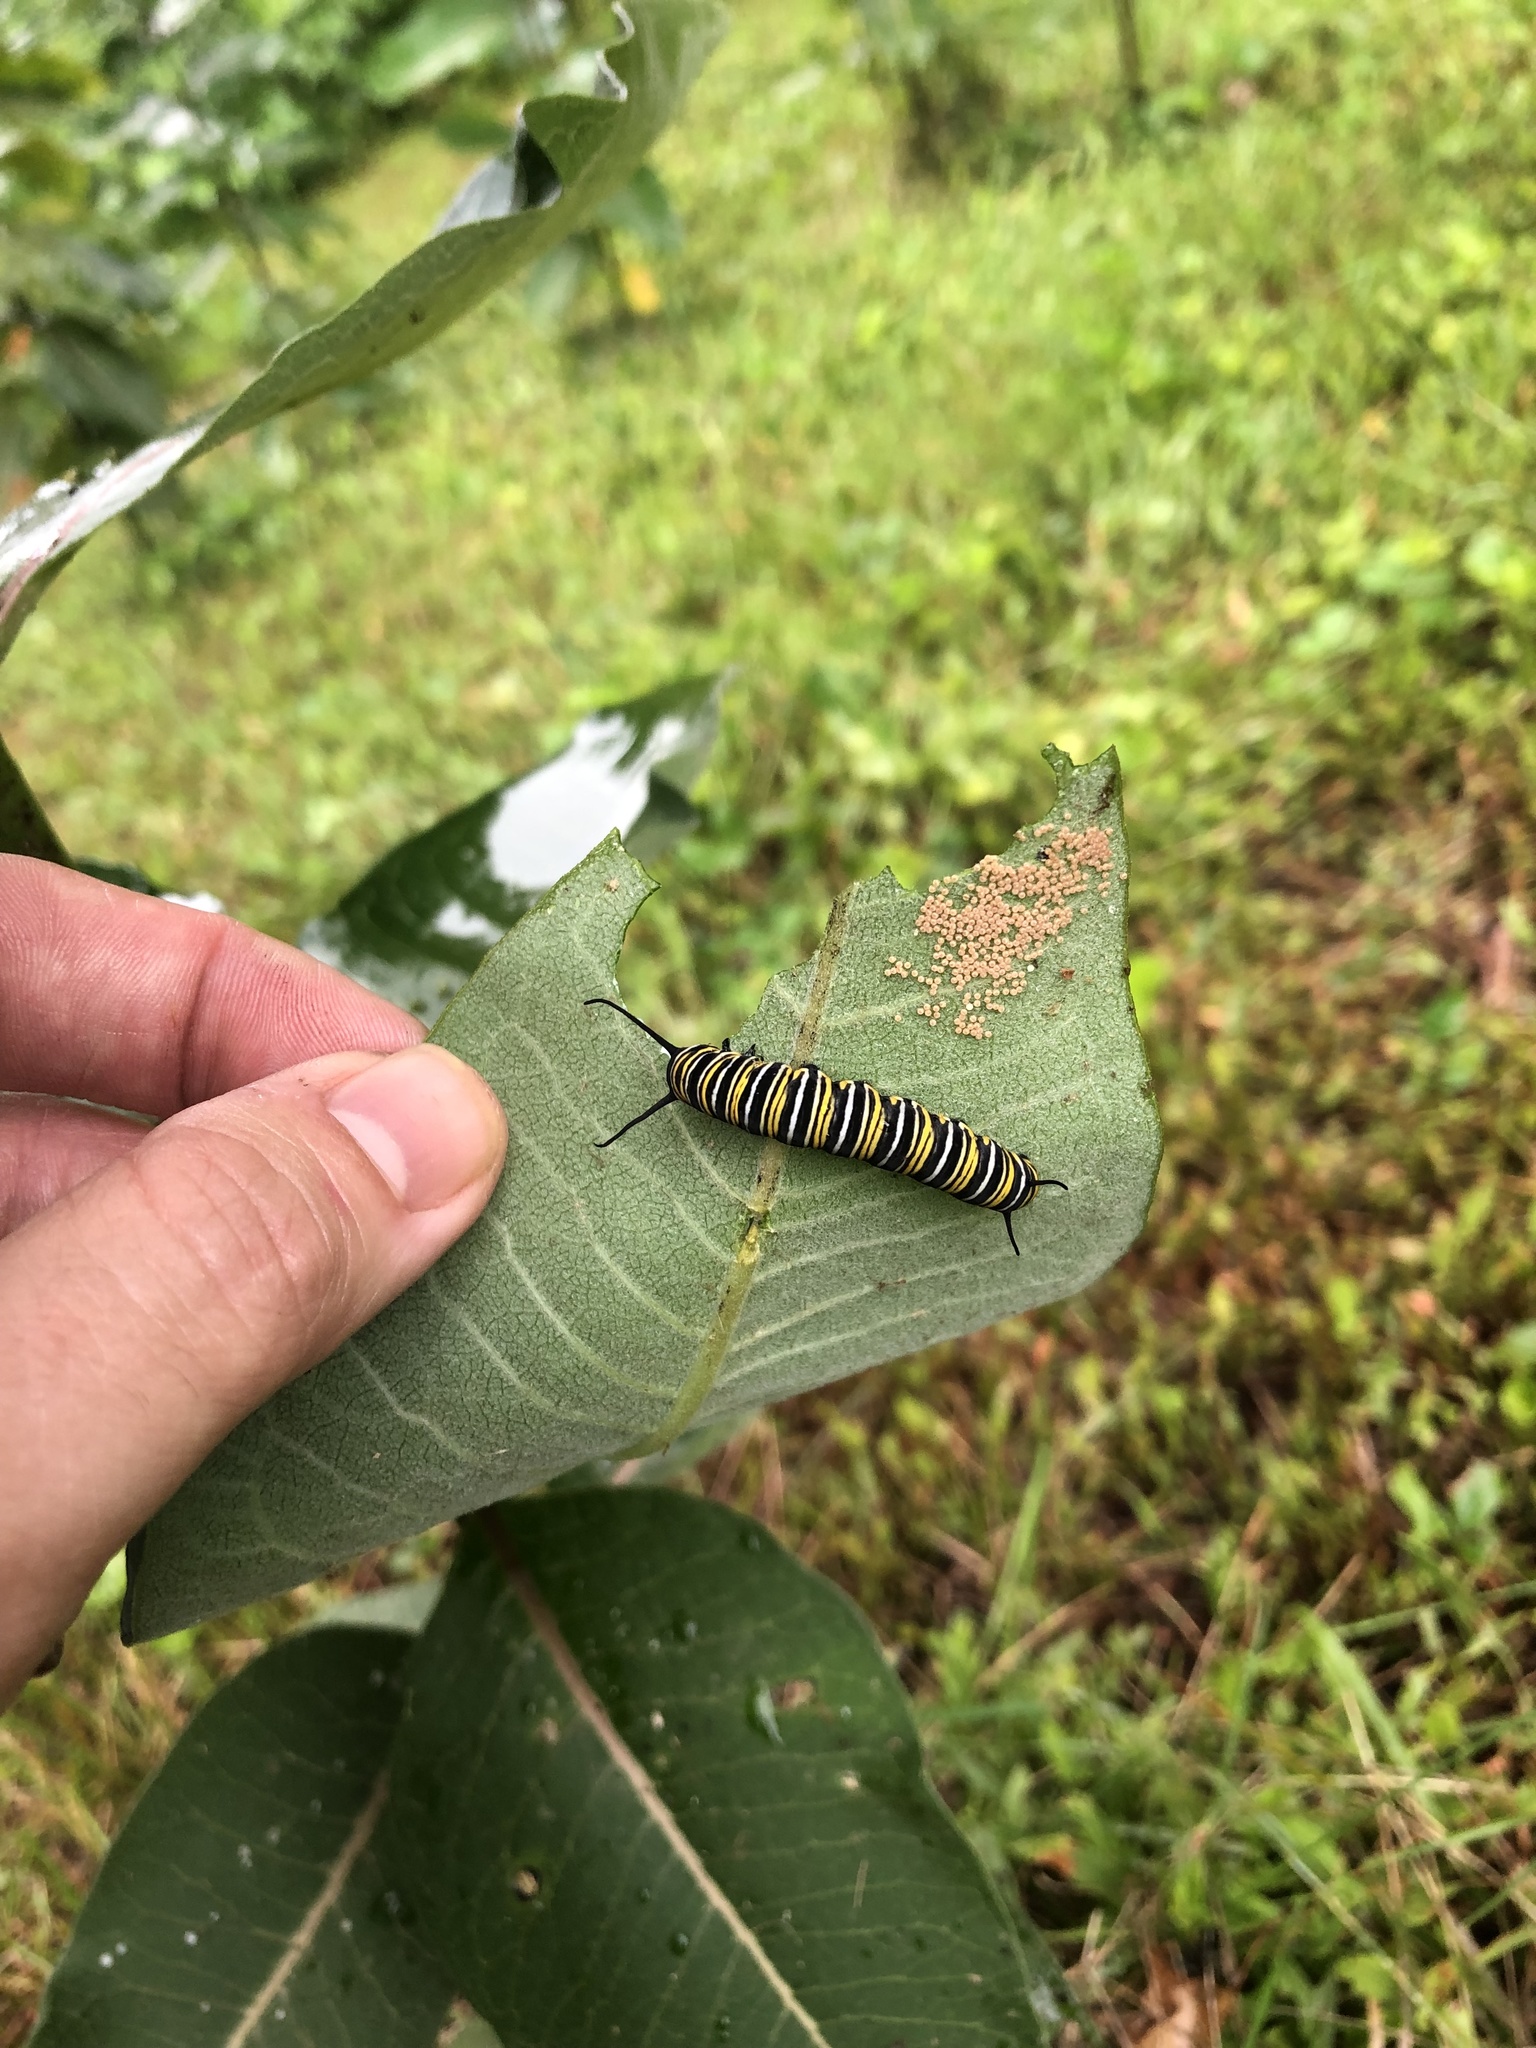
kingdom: Animalia
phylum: Arthropoda
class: Insecta
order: Lepidoptera
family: Nymphalidae
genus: Danaus
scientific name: Danaus plexippus
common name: Monarch
